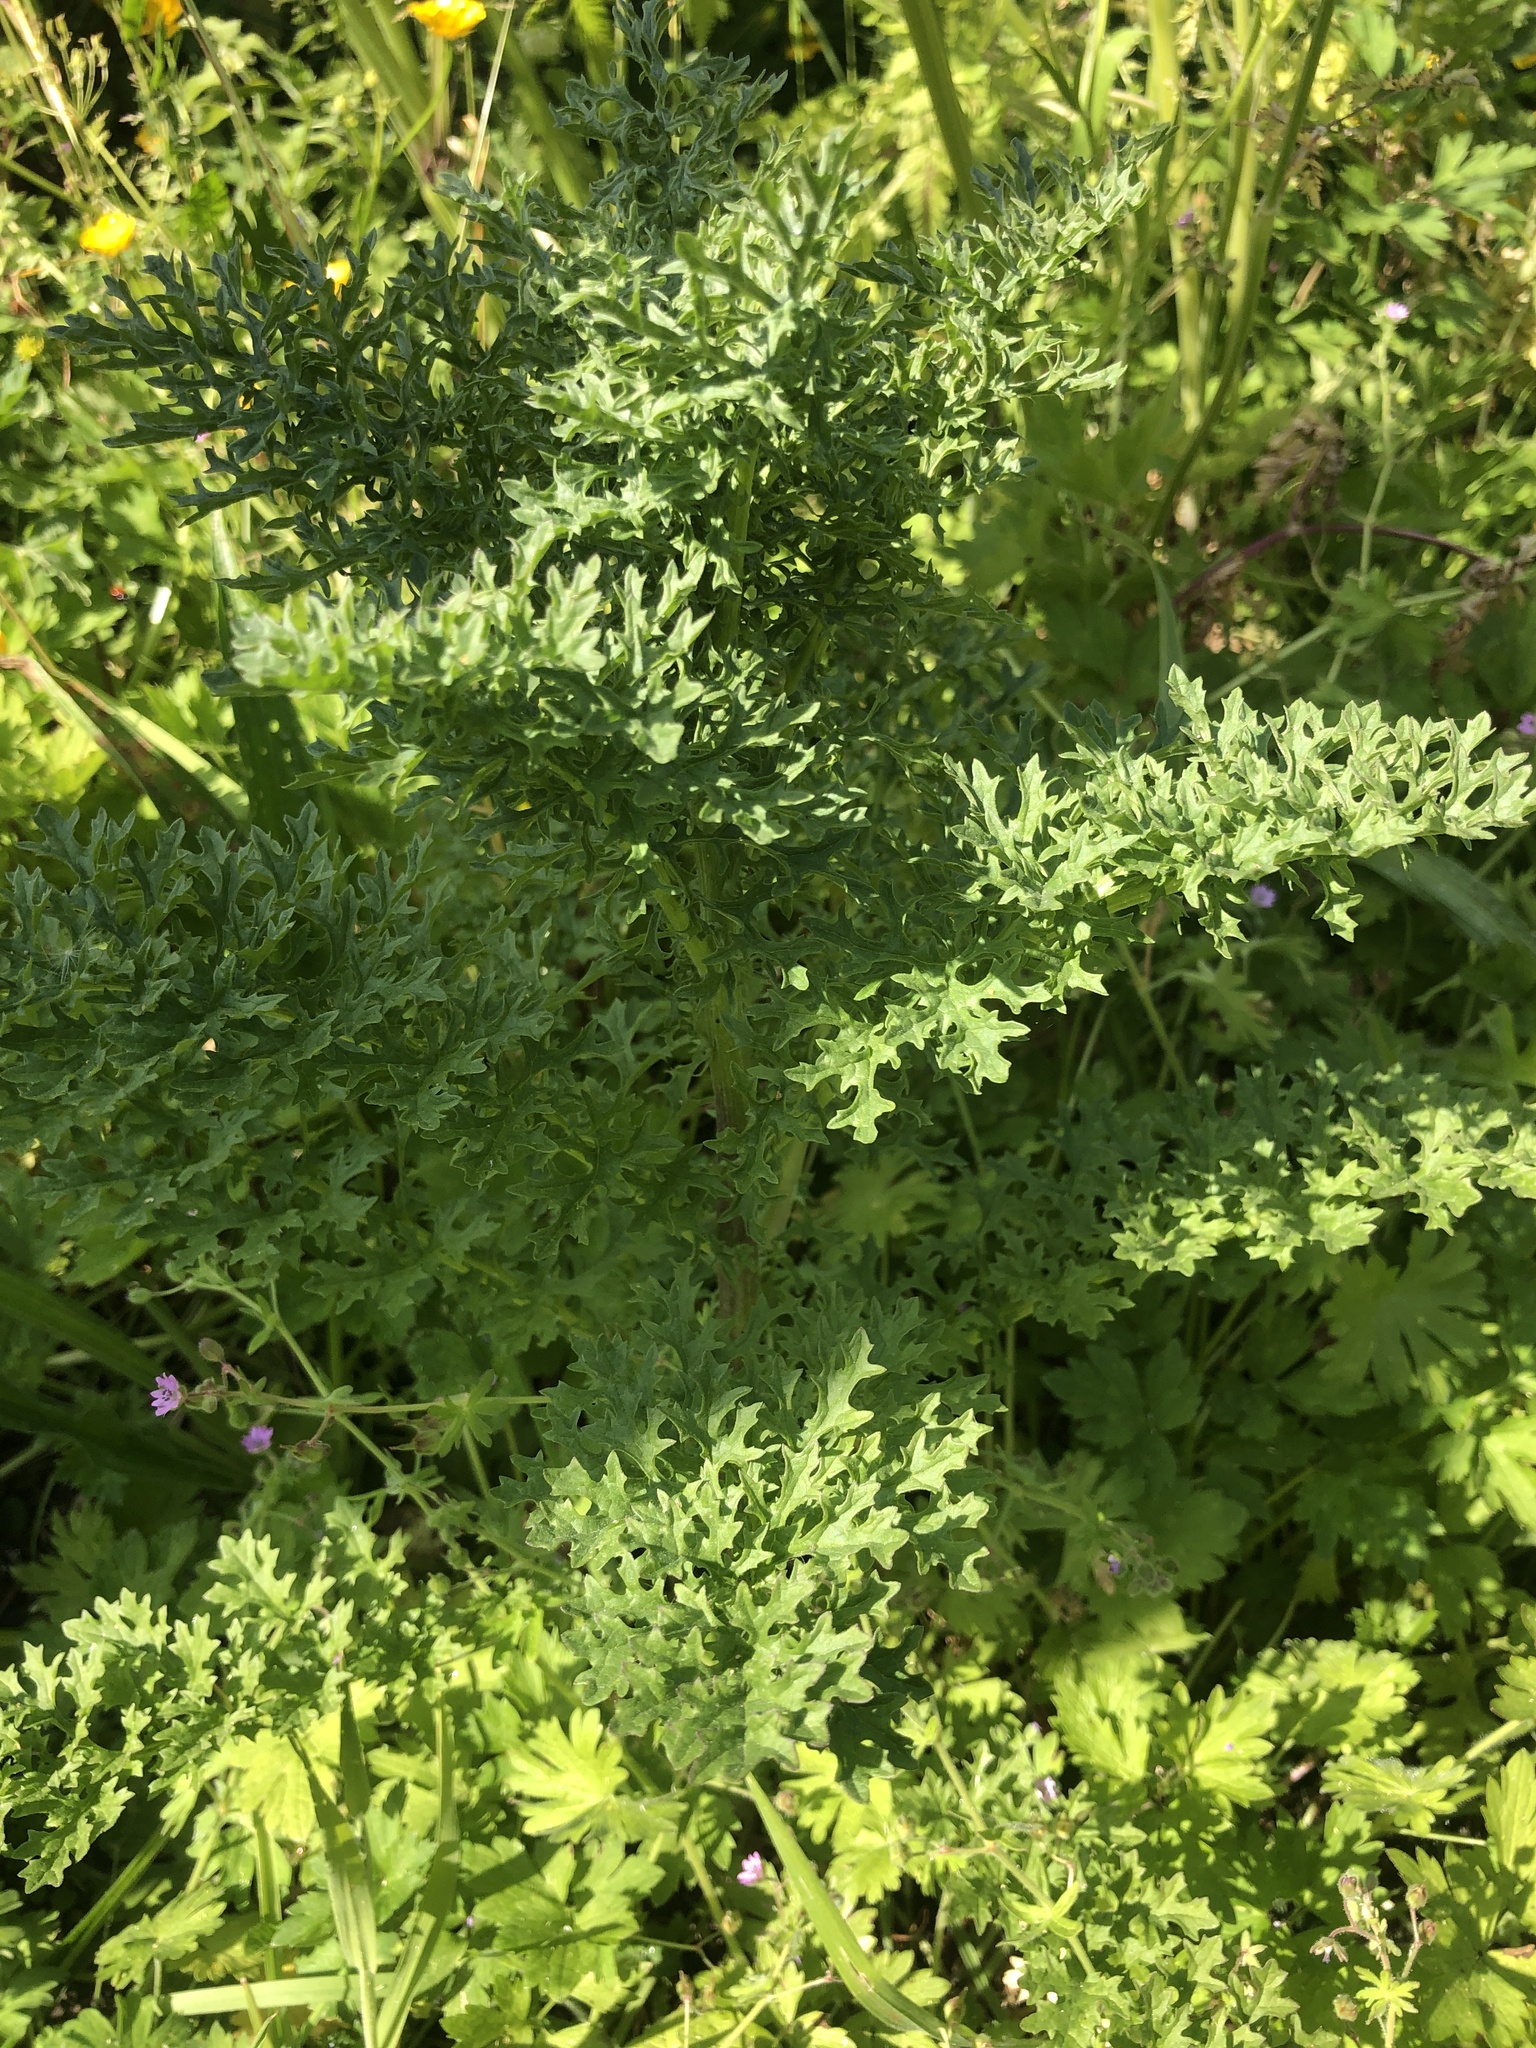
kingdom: Plantae
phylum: Tracheophyta
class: Magnoliopsida
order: Asterales
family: Asteraceae
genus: Jacobaea
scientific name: Jacobaea vulgaris
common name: Stinking willie
